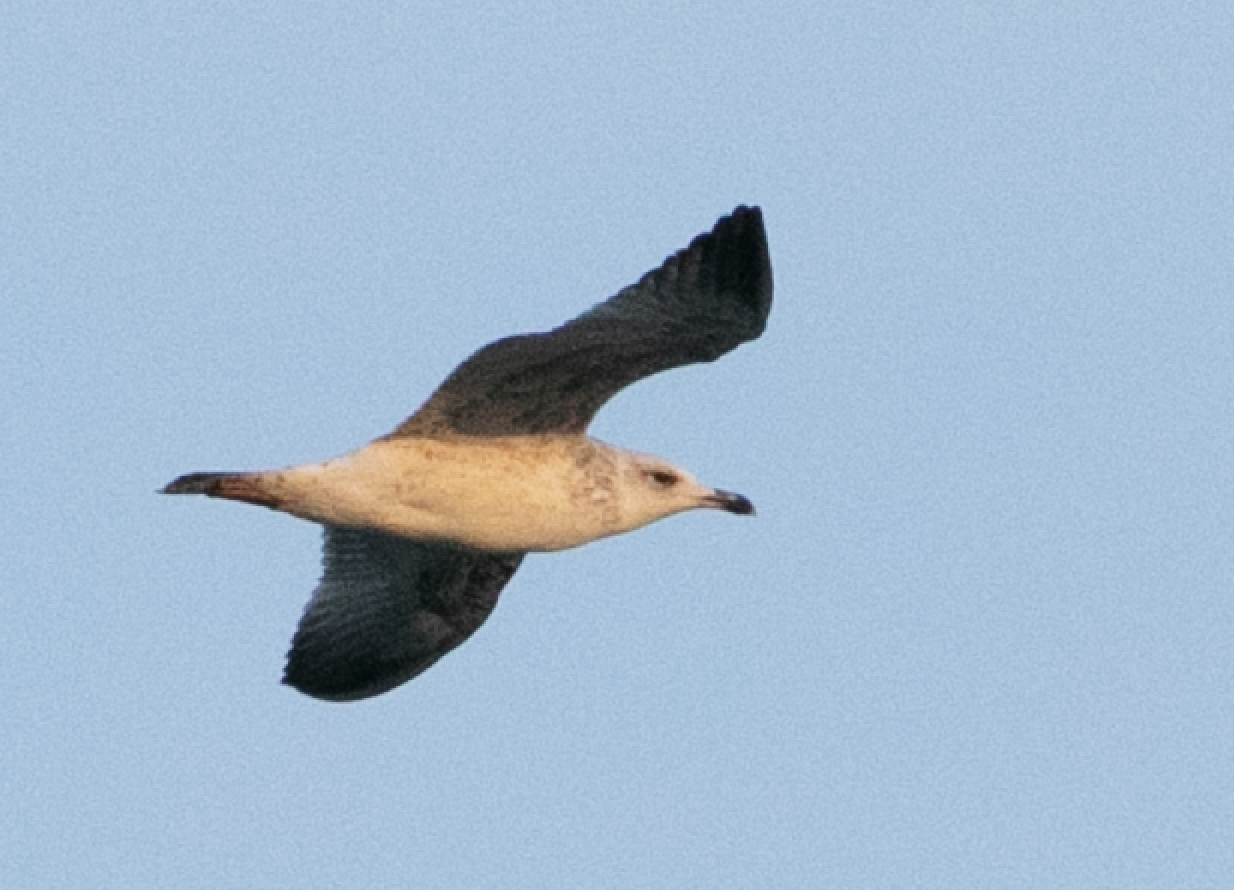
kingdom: Animalia
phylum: Chordata
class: Aves
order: Charadriiformes
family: Laridae
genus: Larus
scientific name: Larus michahellis
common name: Yellow-legged gull
